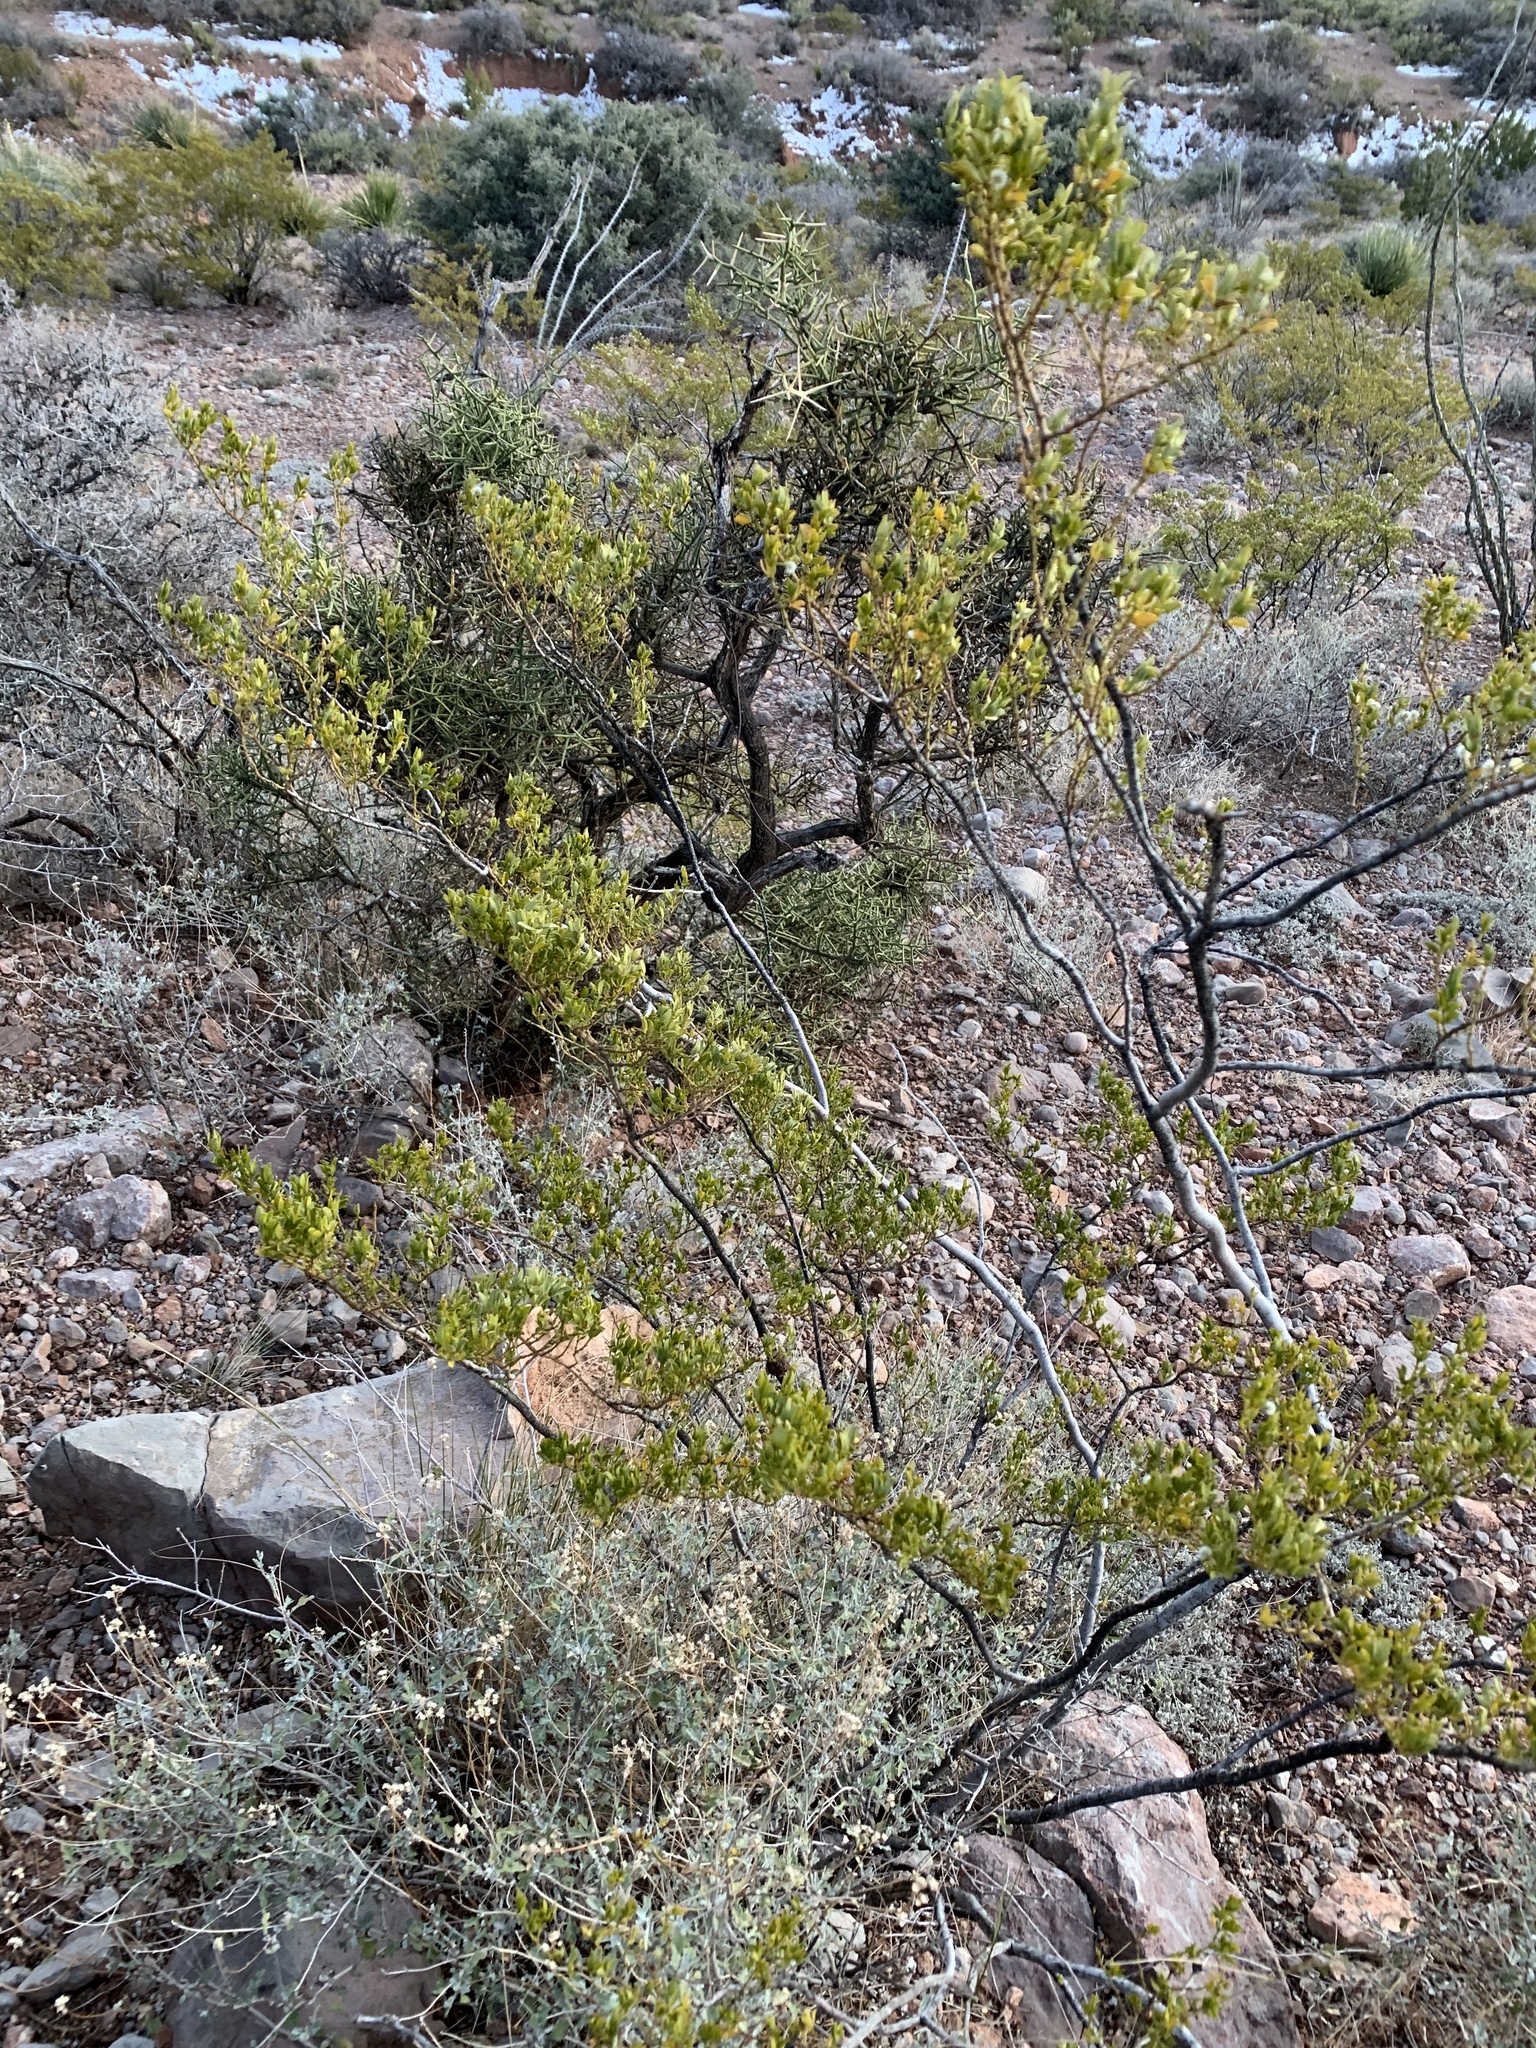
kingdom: Plantae
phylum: Tracheophyta
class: Magnoliopsida
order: Zygophyllales
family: Zygophyllaceae
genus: Larrea
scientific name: Larrea tridentata
